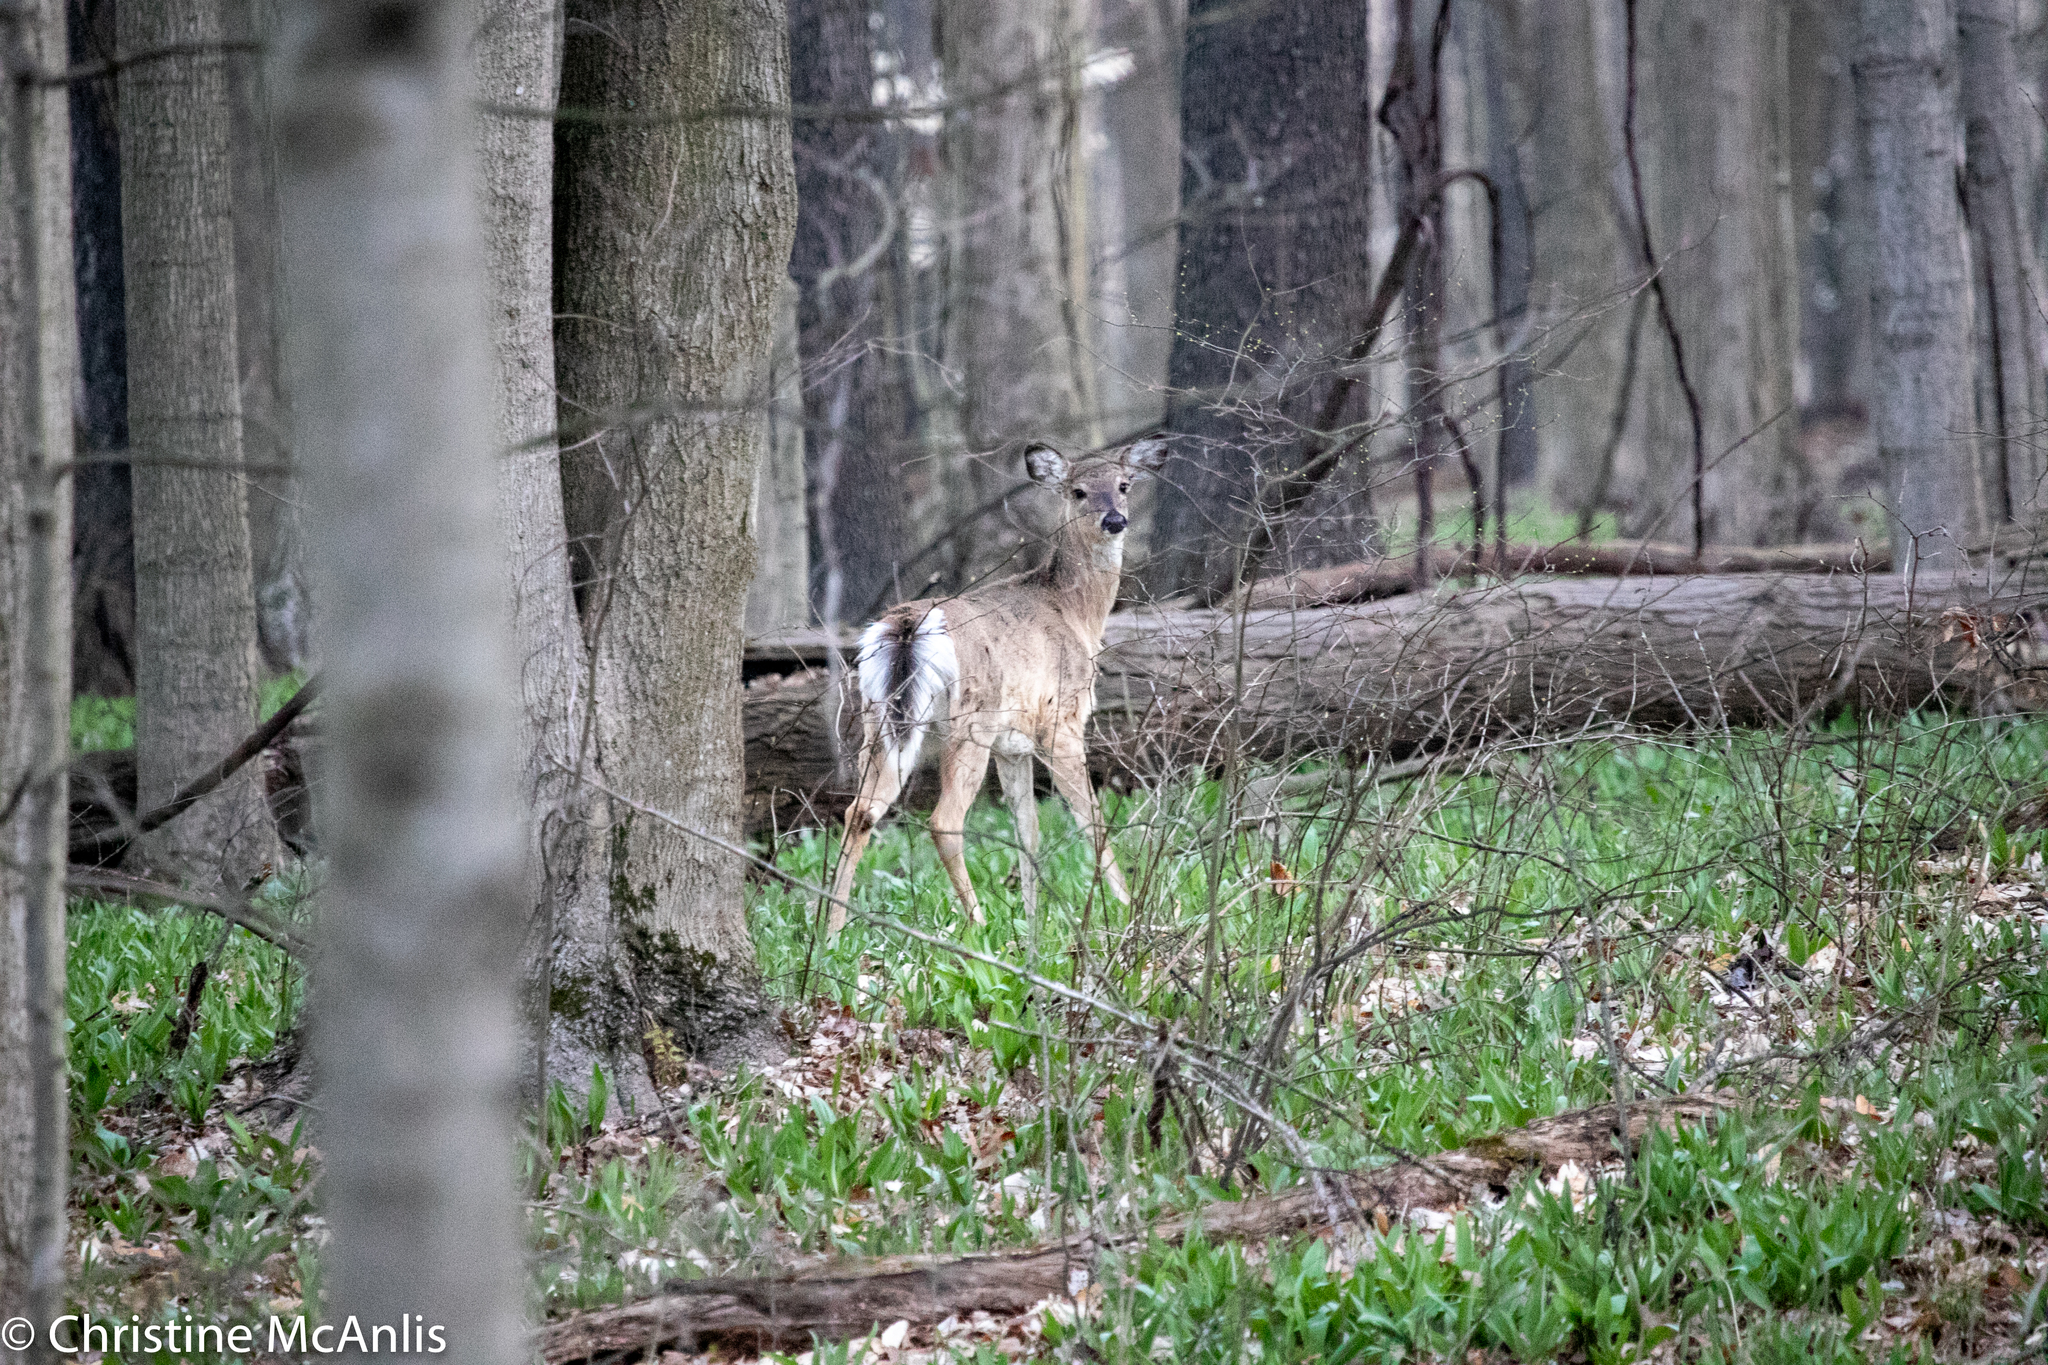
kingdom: Animalia
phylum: Chordata
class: Mammalia
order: Artiodactyla
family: Cervidae
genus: Odocoileus
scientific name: Odocoileus virginianus
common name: White-tailed deer
